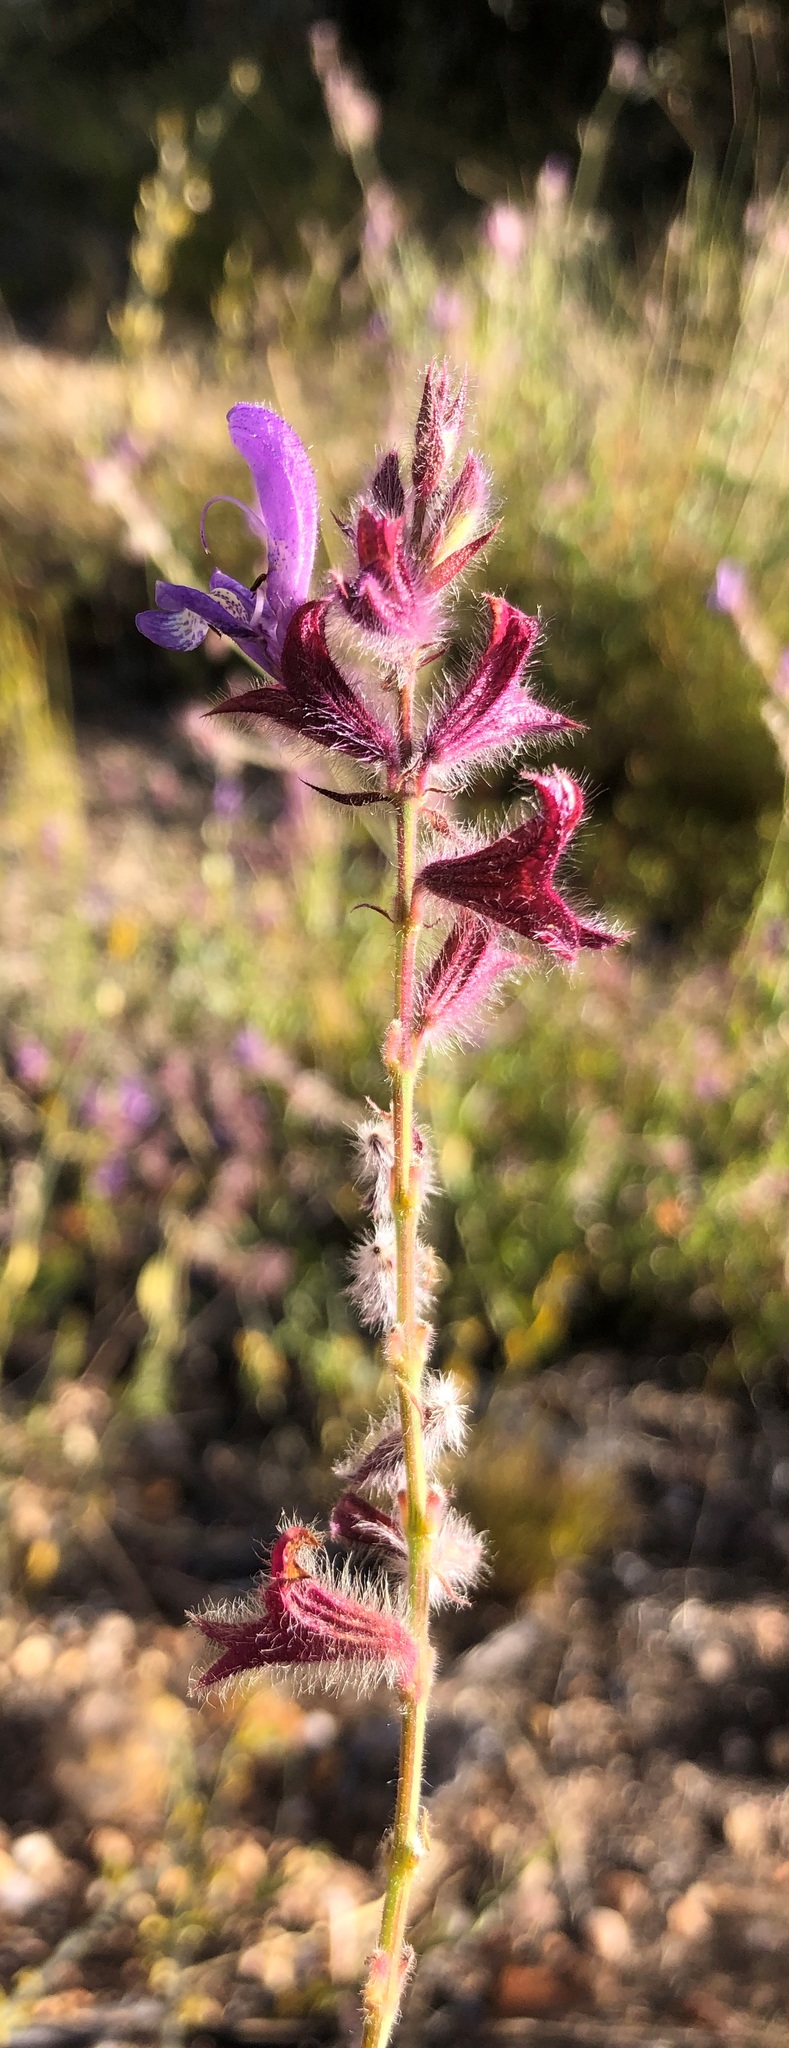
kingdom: Plantae
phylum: Tracheophyta
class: Magnoliopsida
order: Lamiales
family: Lamiaceae
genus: Salvia
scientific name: Salvia albicaulis
